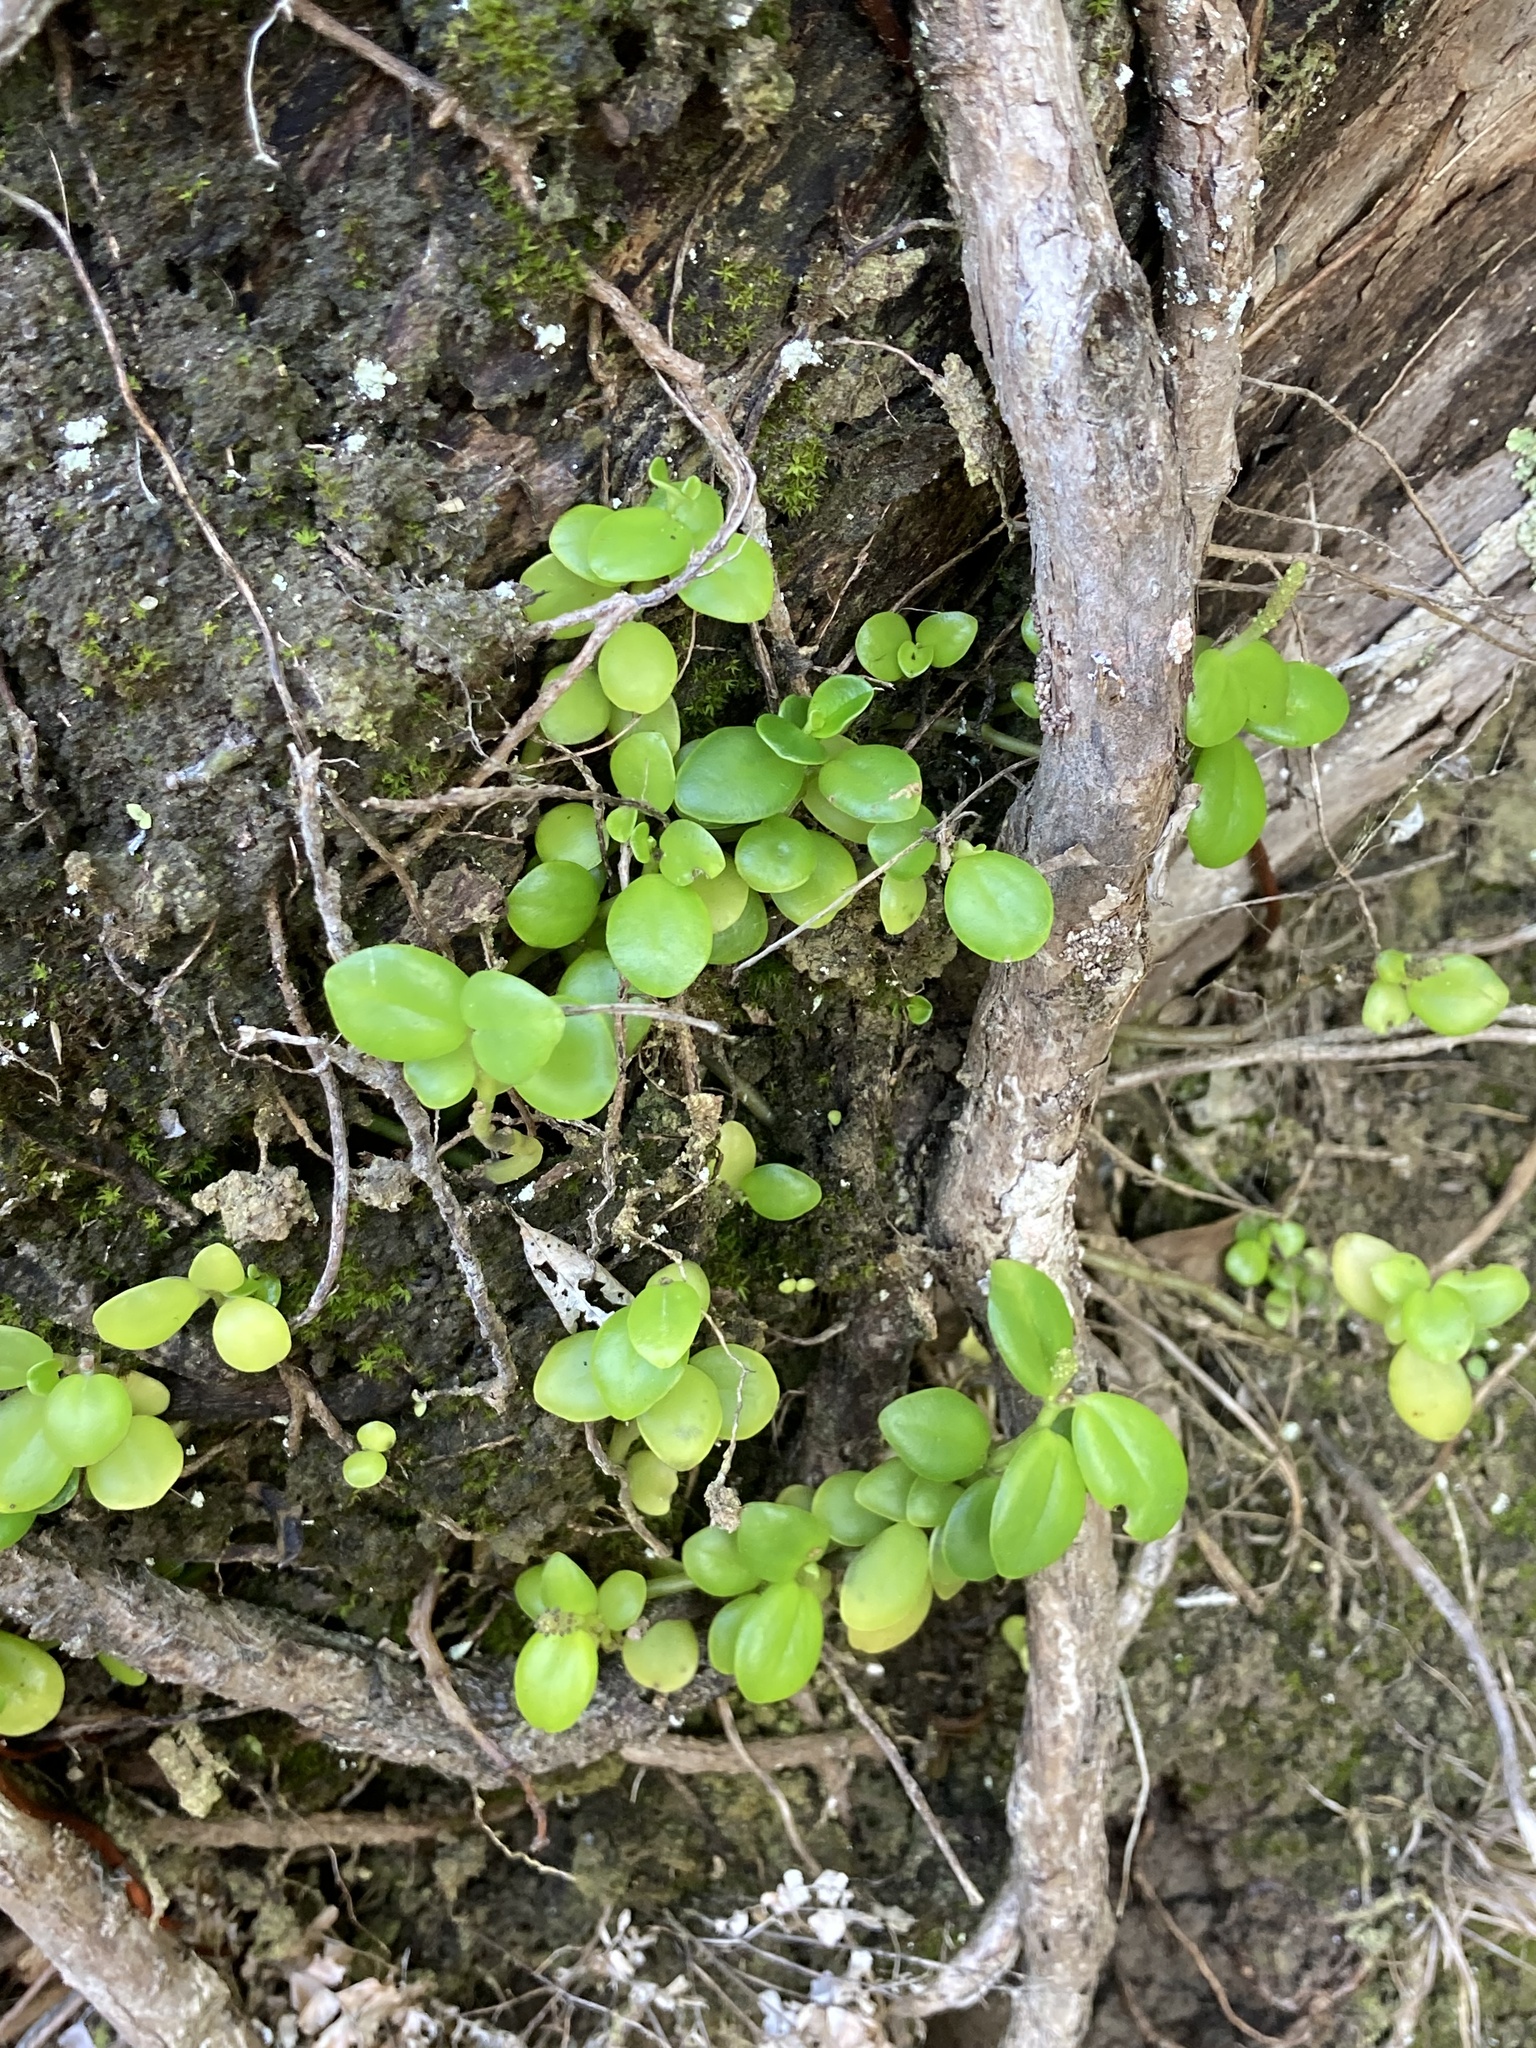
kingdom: Plantae
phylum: Tracheophyta
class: Magnoliopsida
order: Piperales
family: Piperaceae
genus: Peperomia
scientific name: Peperomia urvilleana
